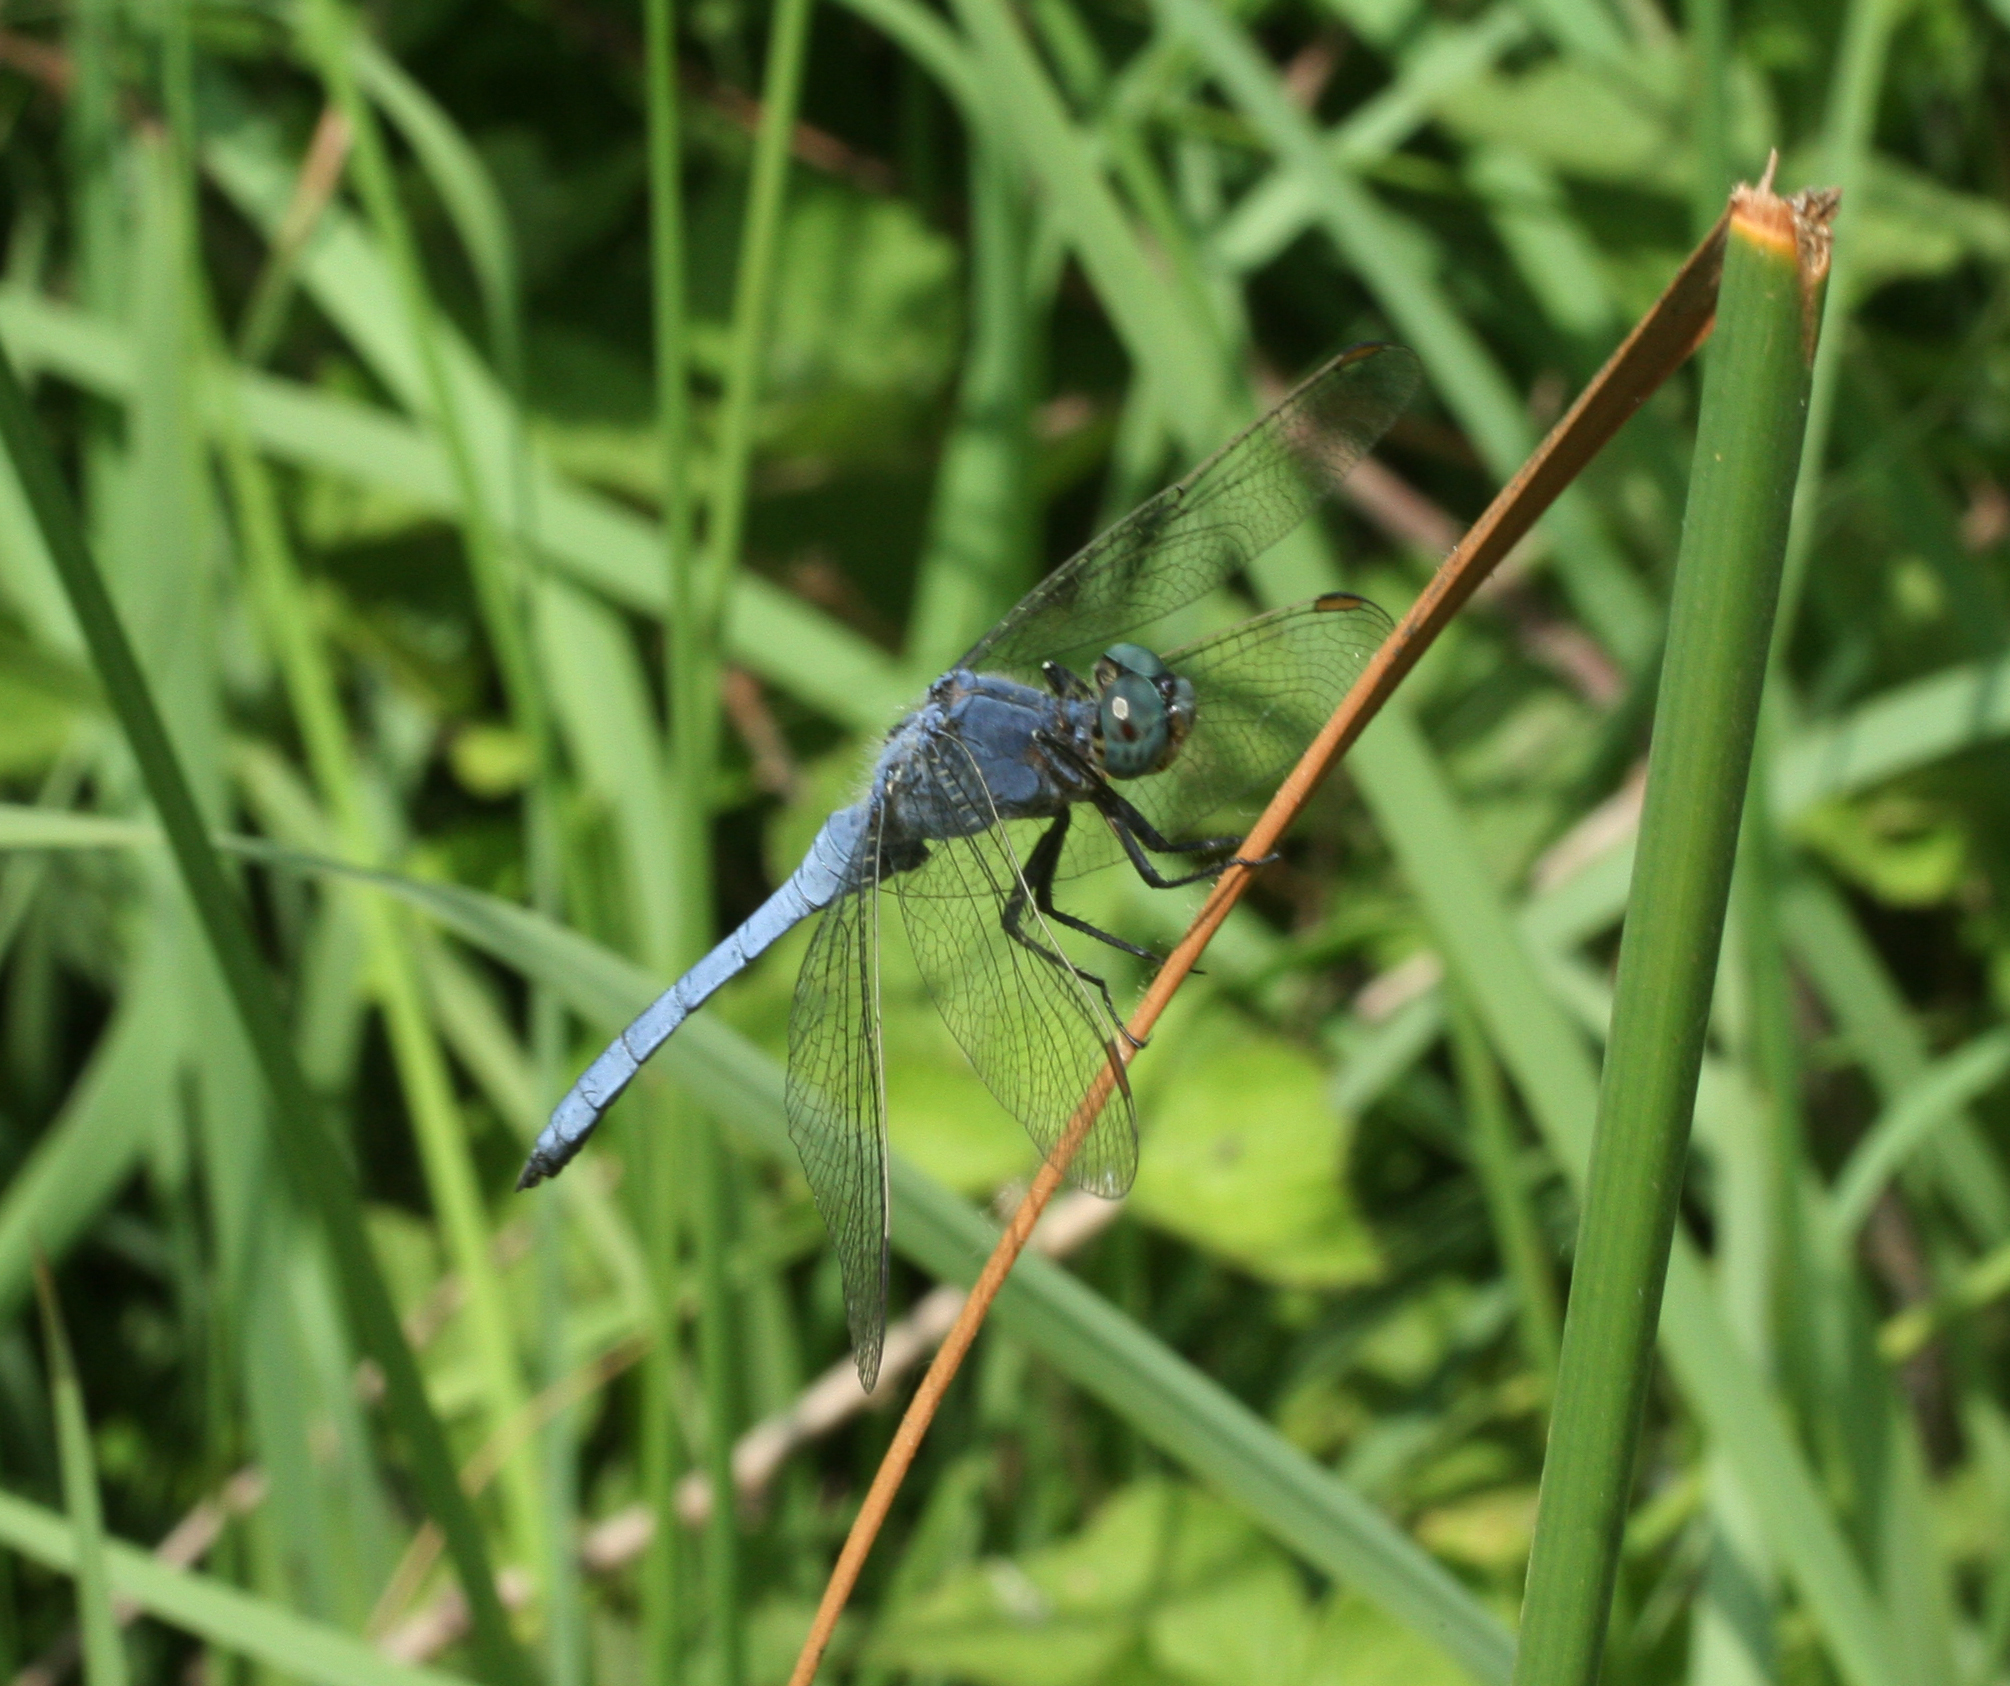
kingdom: Animalia
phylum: Arthropoda
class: Insecta
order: Odonata
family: Libellulidae
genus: Orthetrum
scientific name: Orthetrum coerulescens
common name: Keeled skimmer
